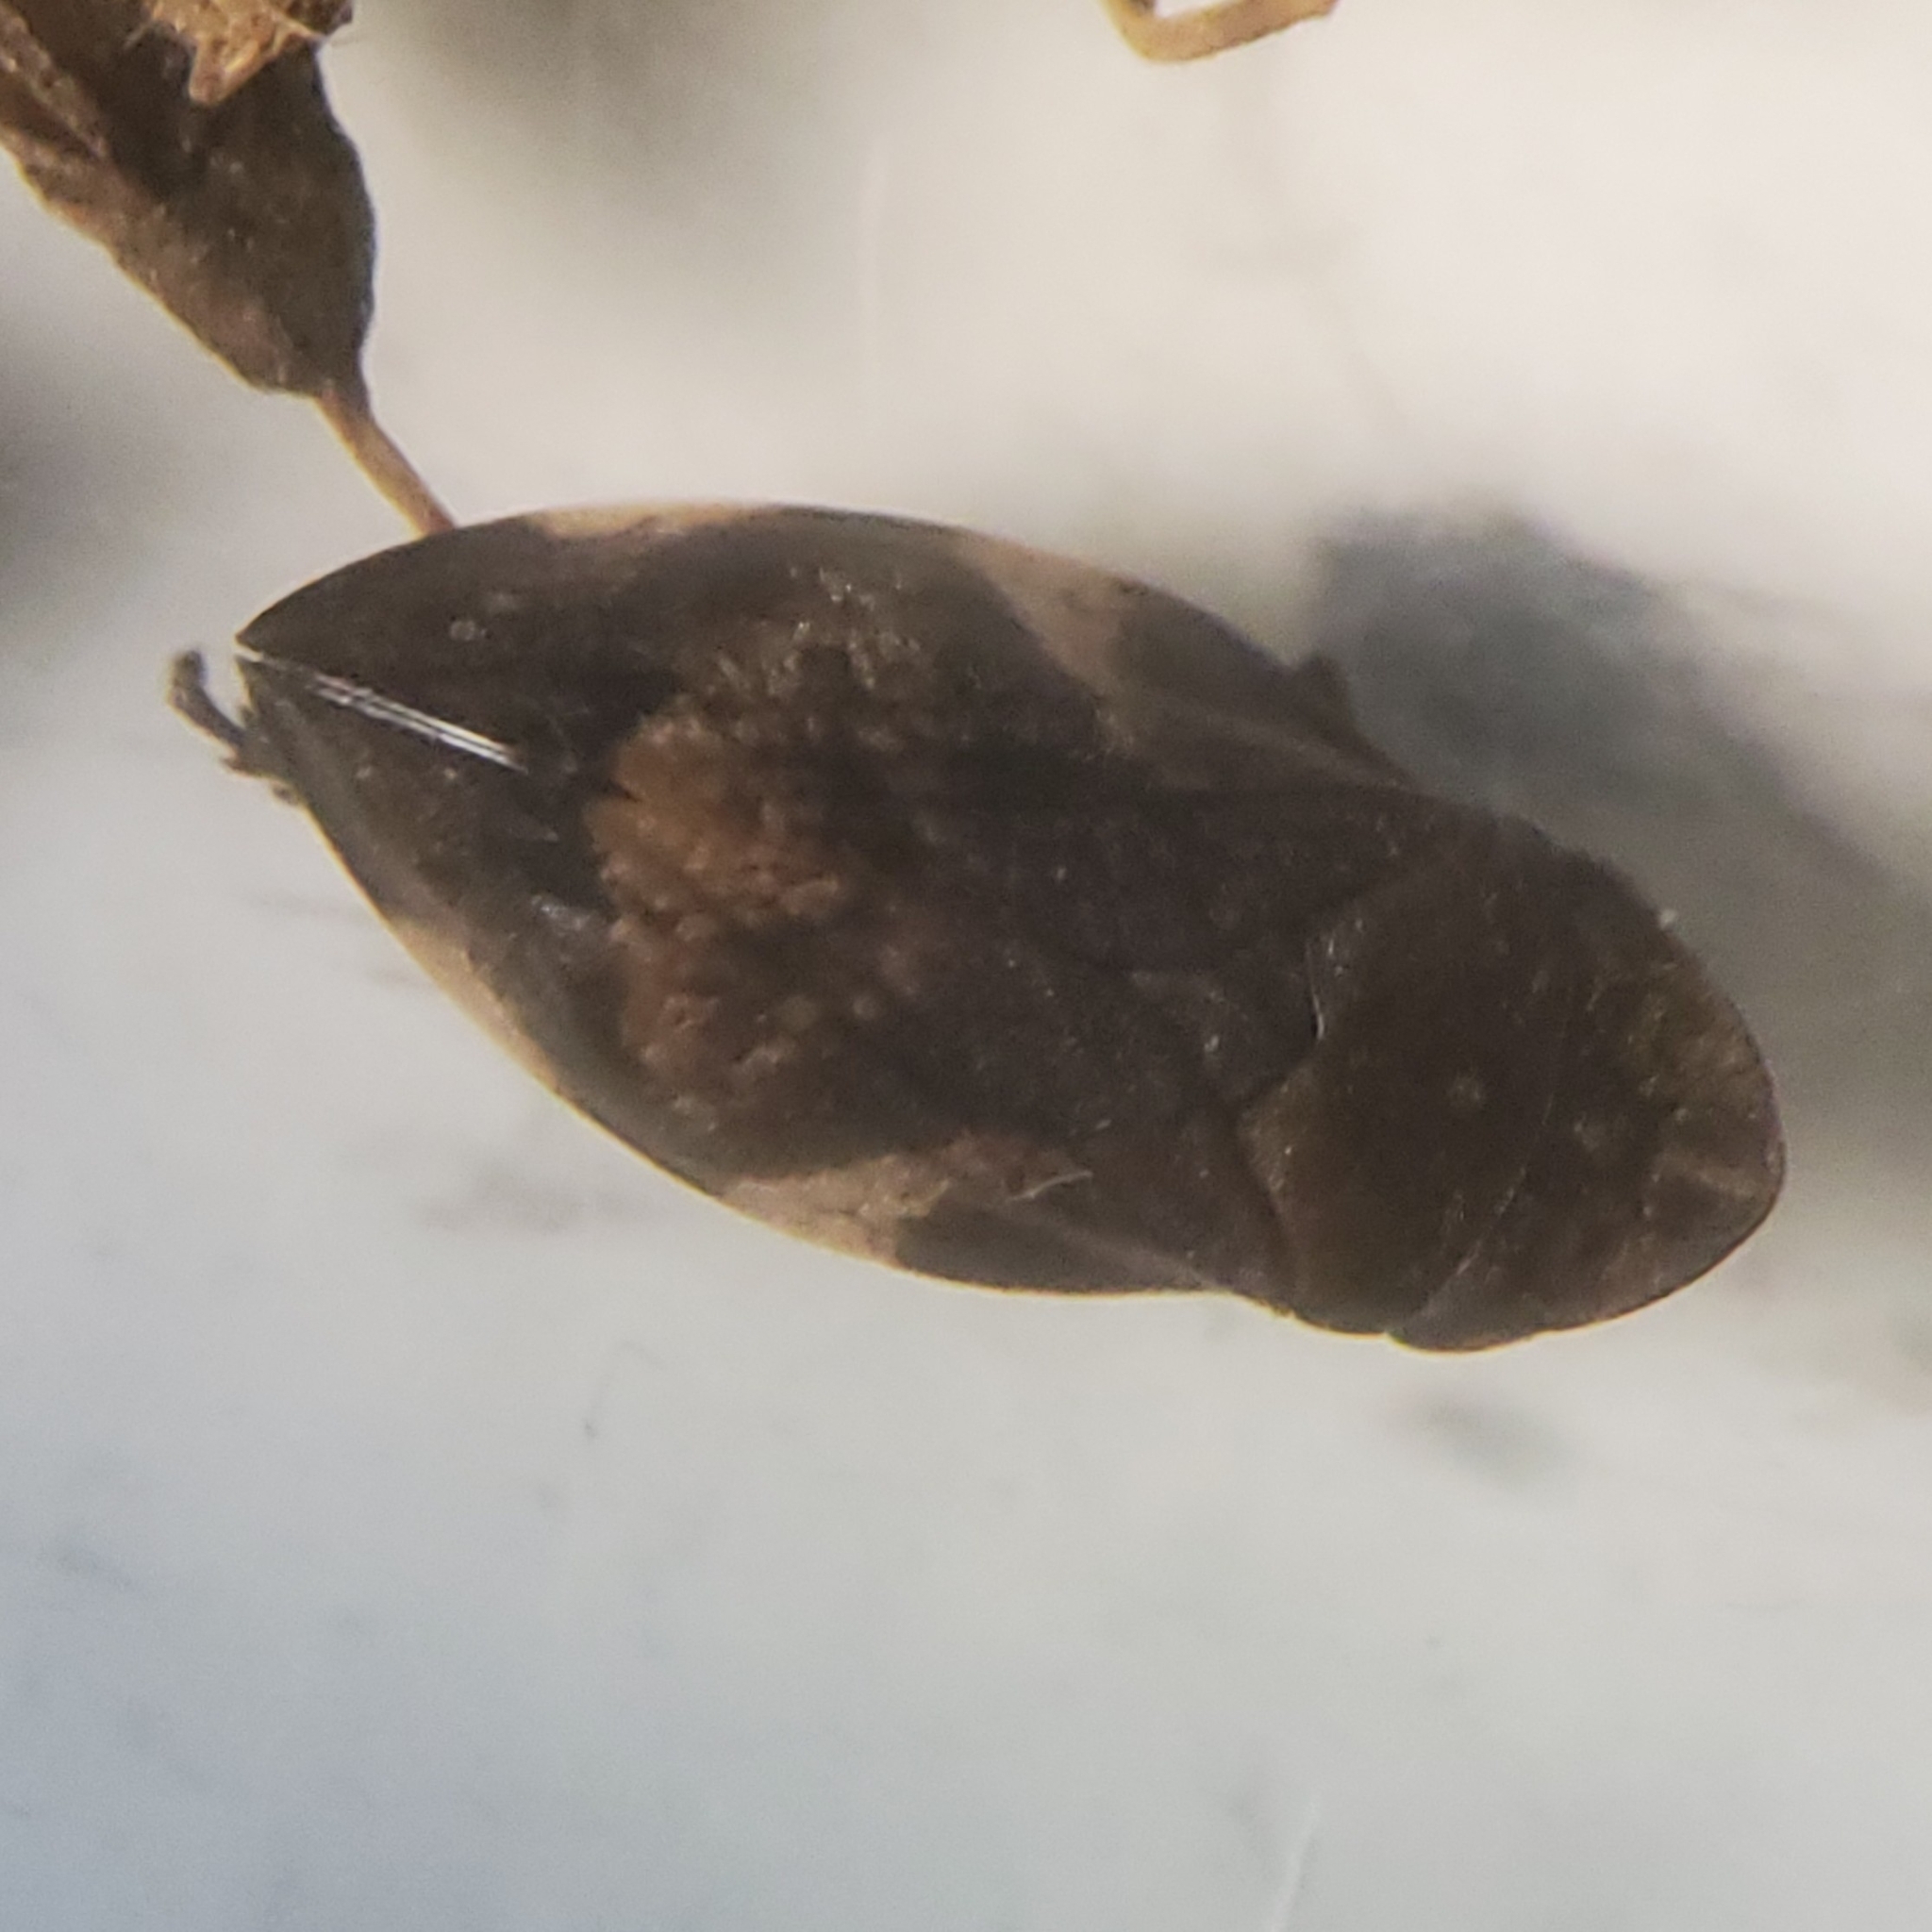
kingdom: Animalia
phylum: Arthropoda
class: Insecta
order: Hemiptera
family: Aphrophoridae
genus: Lepyronia
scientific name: Lepyronia quadrangularis
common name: Diamond-backed spittlebug
